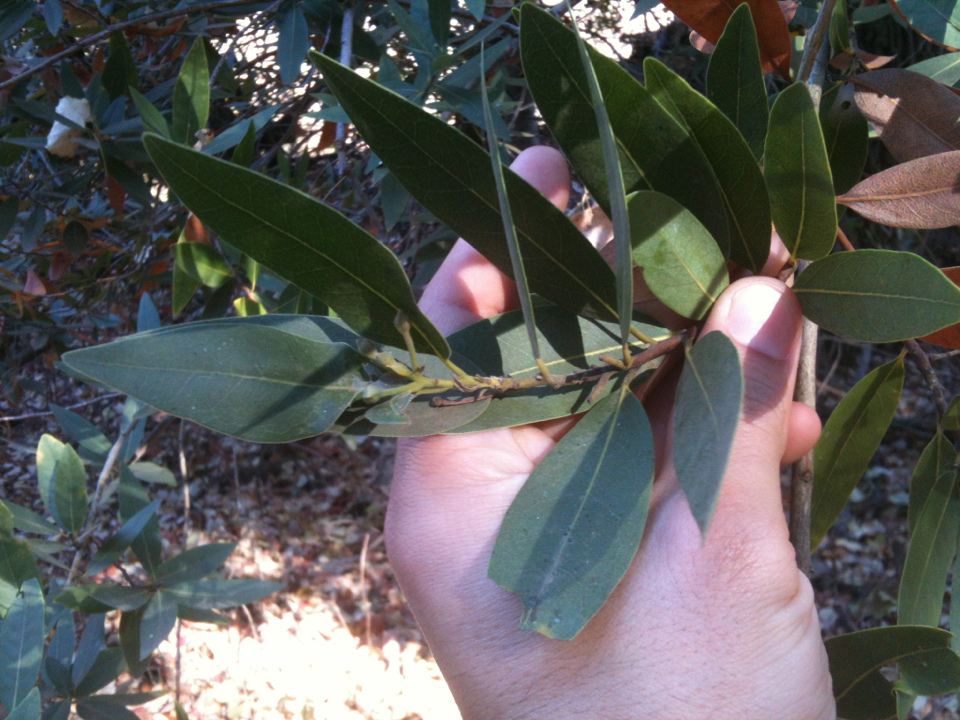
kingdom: Plantae
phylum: Tracheophyta
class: Magnoliopsida
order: Laurales
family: Lauraceae
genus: Umbellularia
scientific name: Umbellularia californica
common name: California bay
